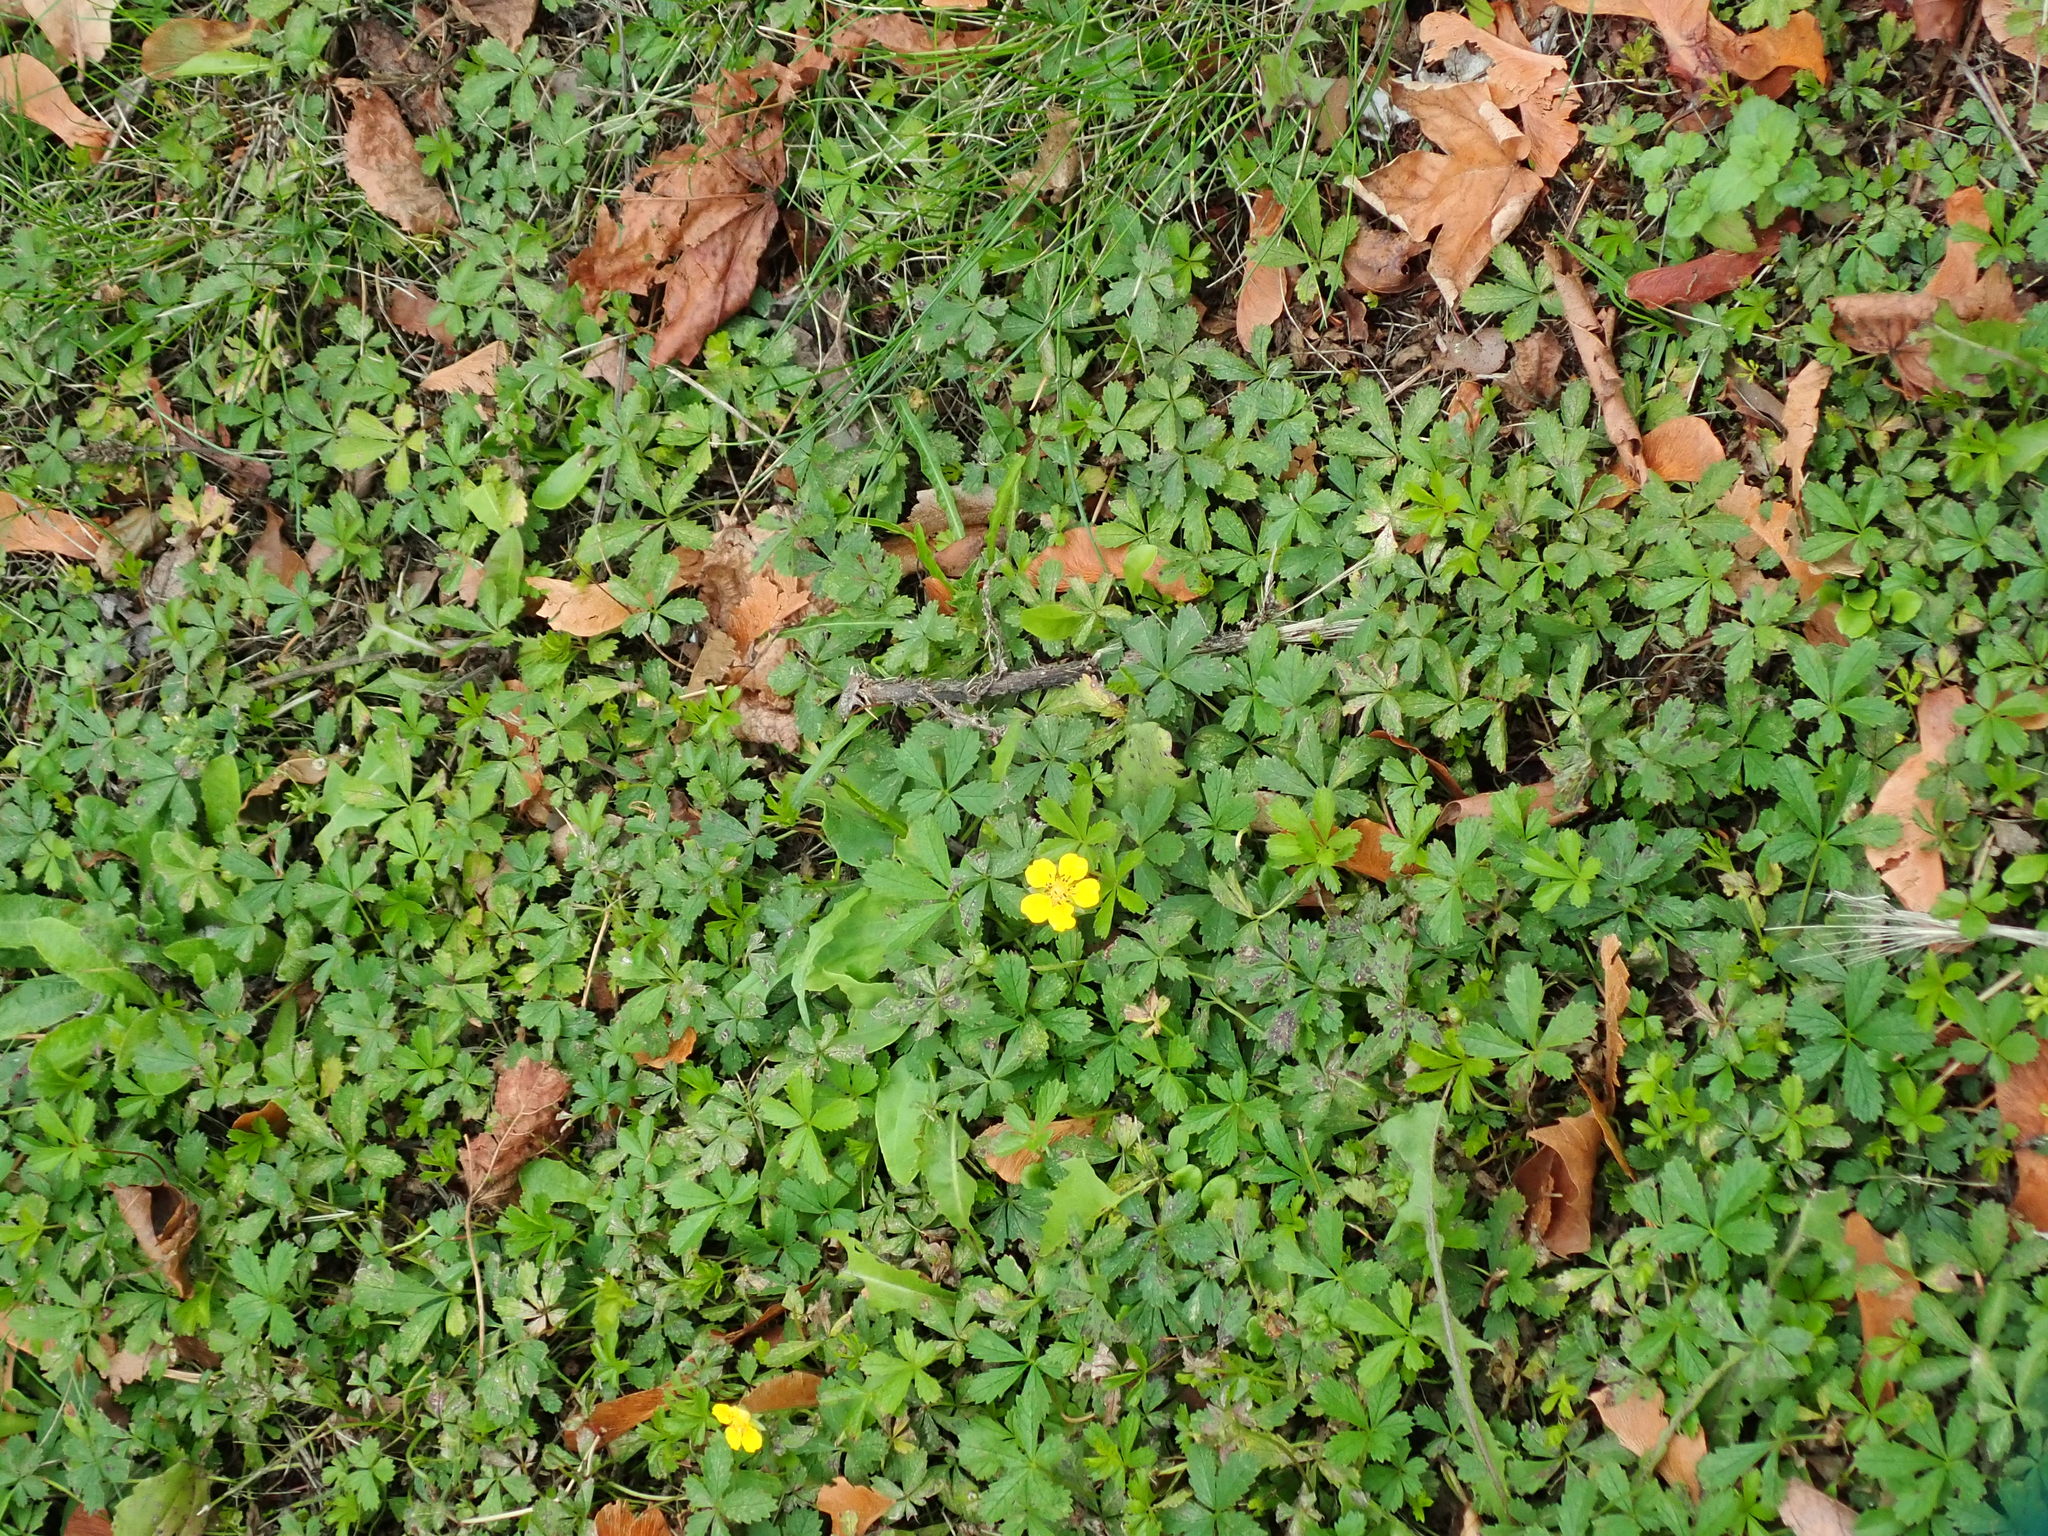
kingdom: Plantae
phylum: Tracheophyta
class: Magnoliopsida
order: Rosales
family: Rosaceae
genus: Potentilla
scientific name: Potentilla reptans
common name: Creeping cinquefoil
